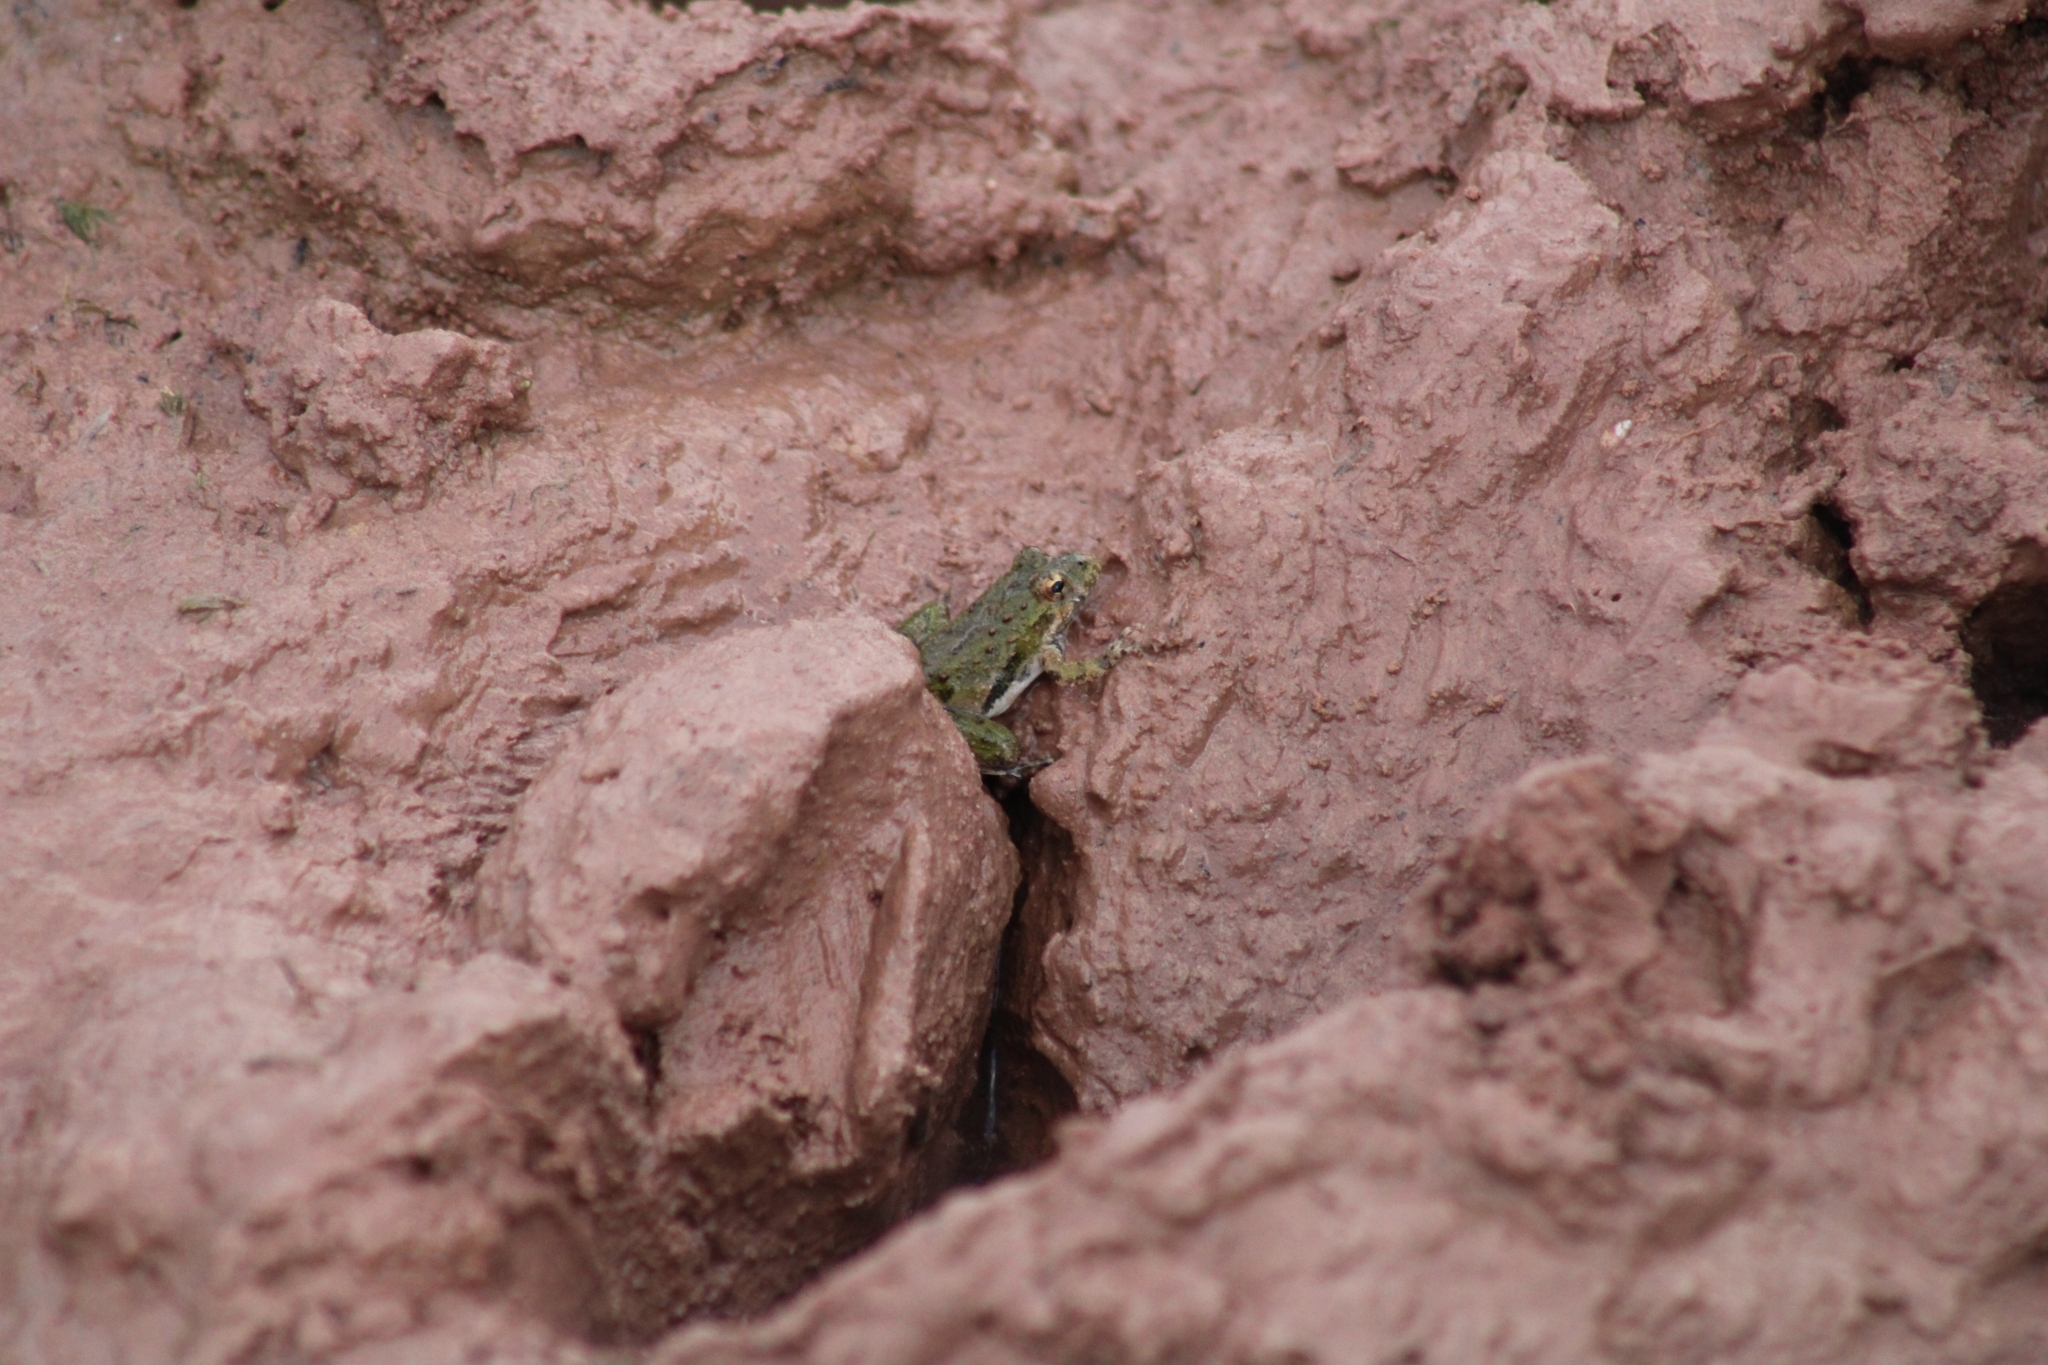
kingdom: Animalia
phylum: Chordata
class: Amphibia
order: Anura
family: Hylidae
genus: Acris
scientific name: Acris blanchardi
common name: Blanchard's cricket frog
